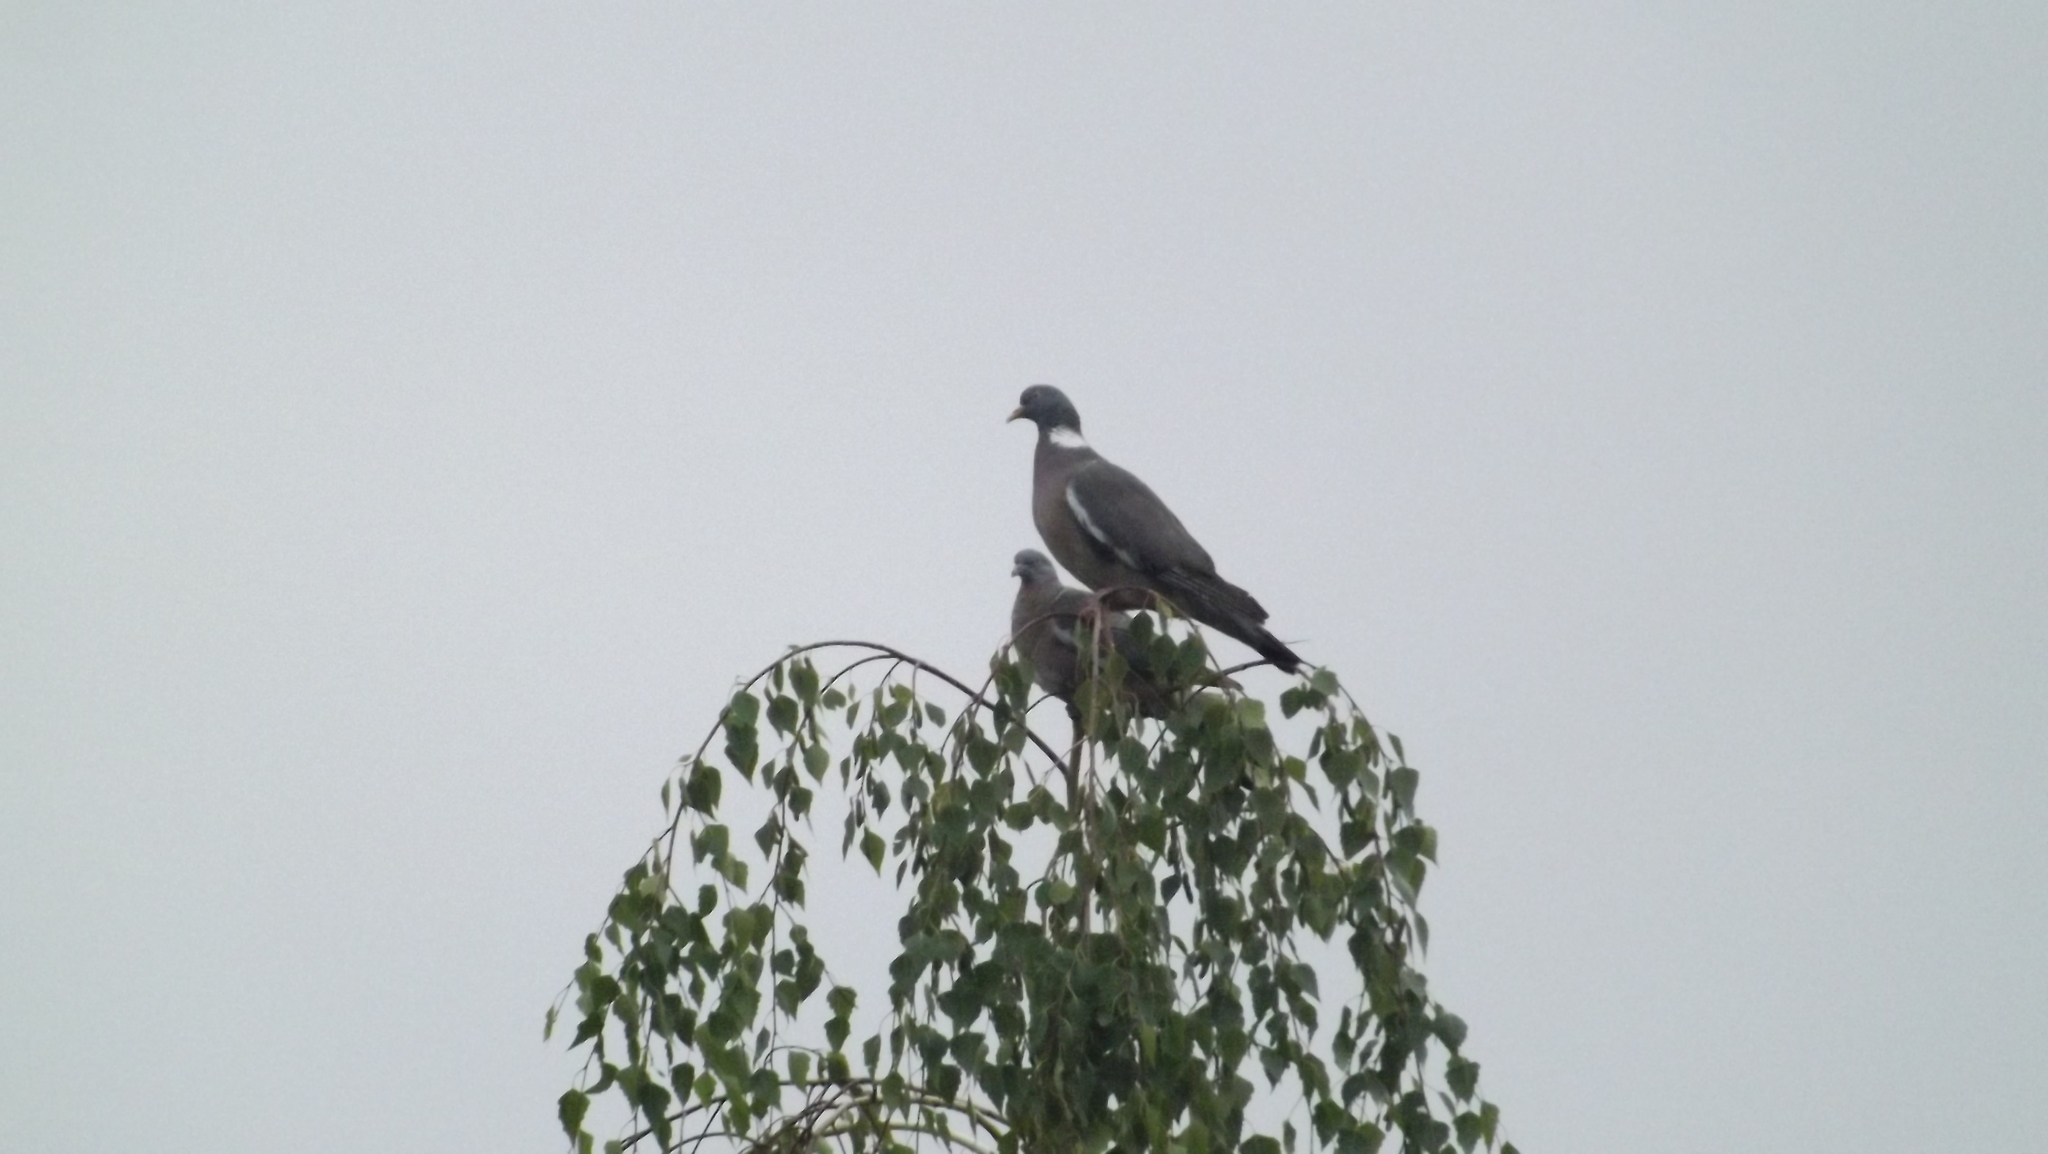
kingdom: Animalia
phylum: Chordata
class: Aves
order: Columbiformes
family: Columbidae
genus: Columba
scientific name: Columba palumbus
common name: Common wood pigeon
